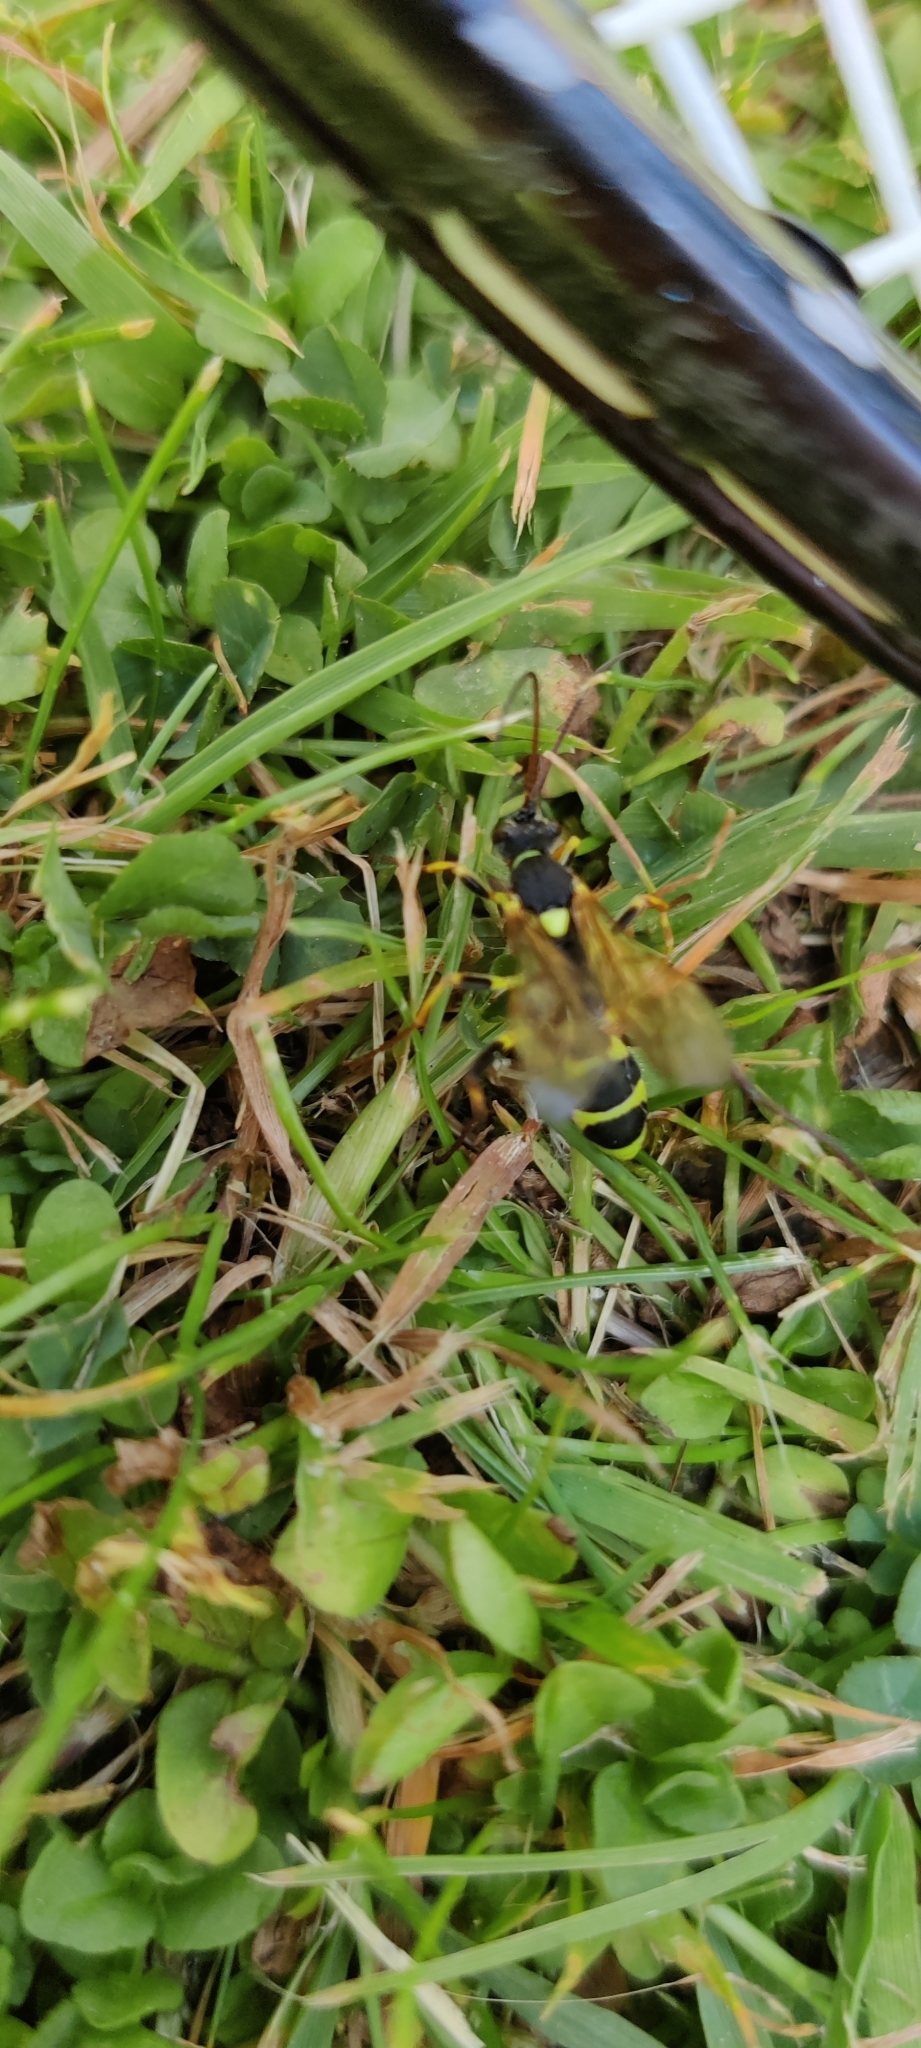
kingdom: Animalia
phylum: Arthropoda
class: Insecta
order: Hymenoptera
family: Ichneumonidae
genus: Amblyteles
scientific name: Amblyteles armatorius
